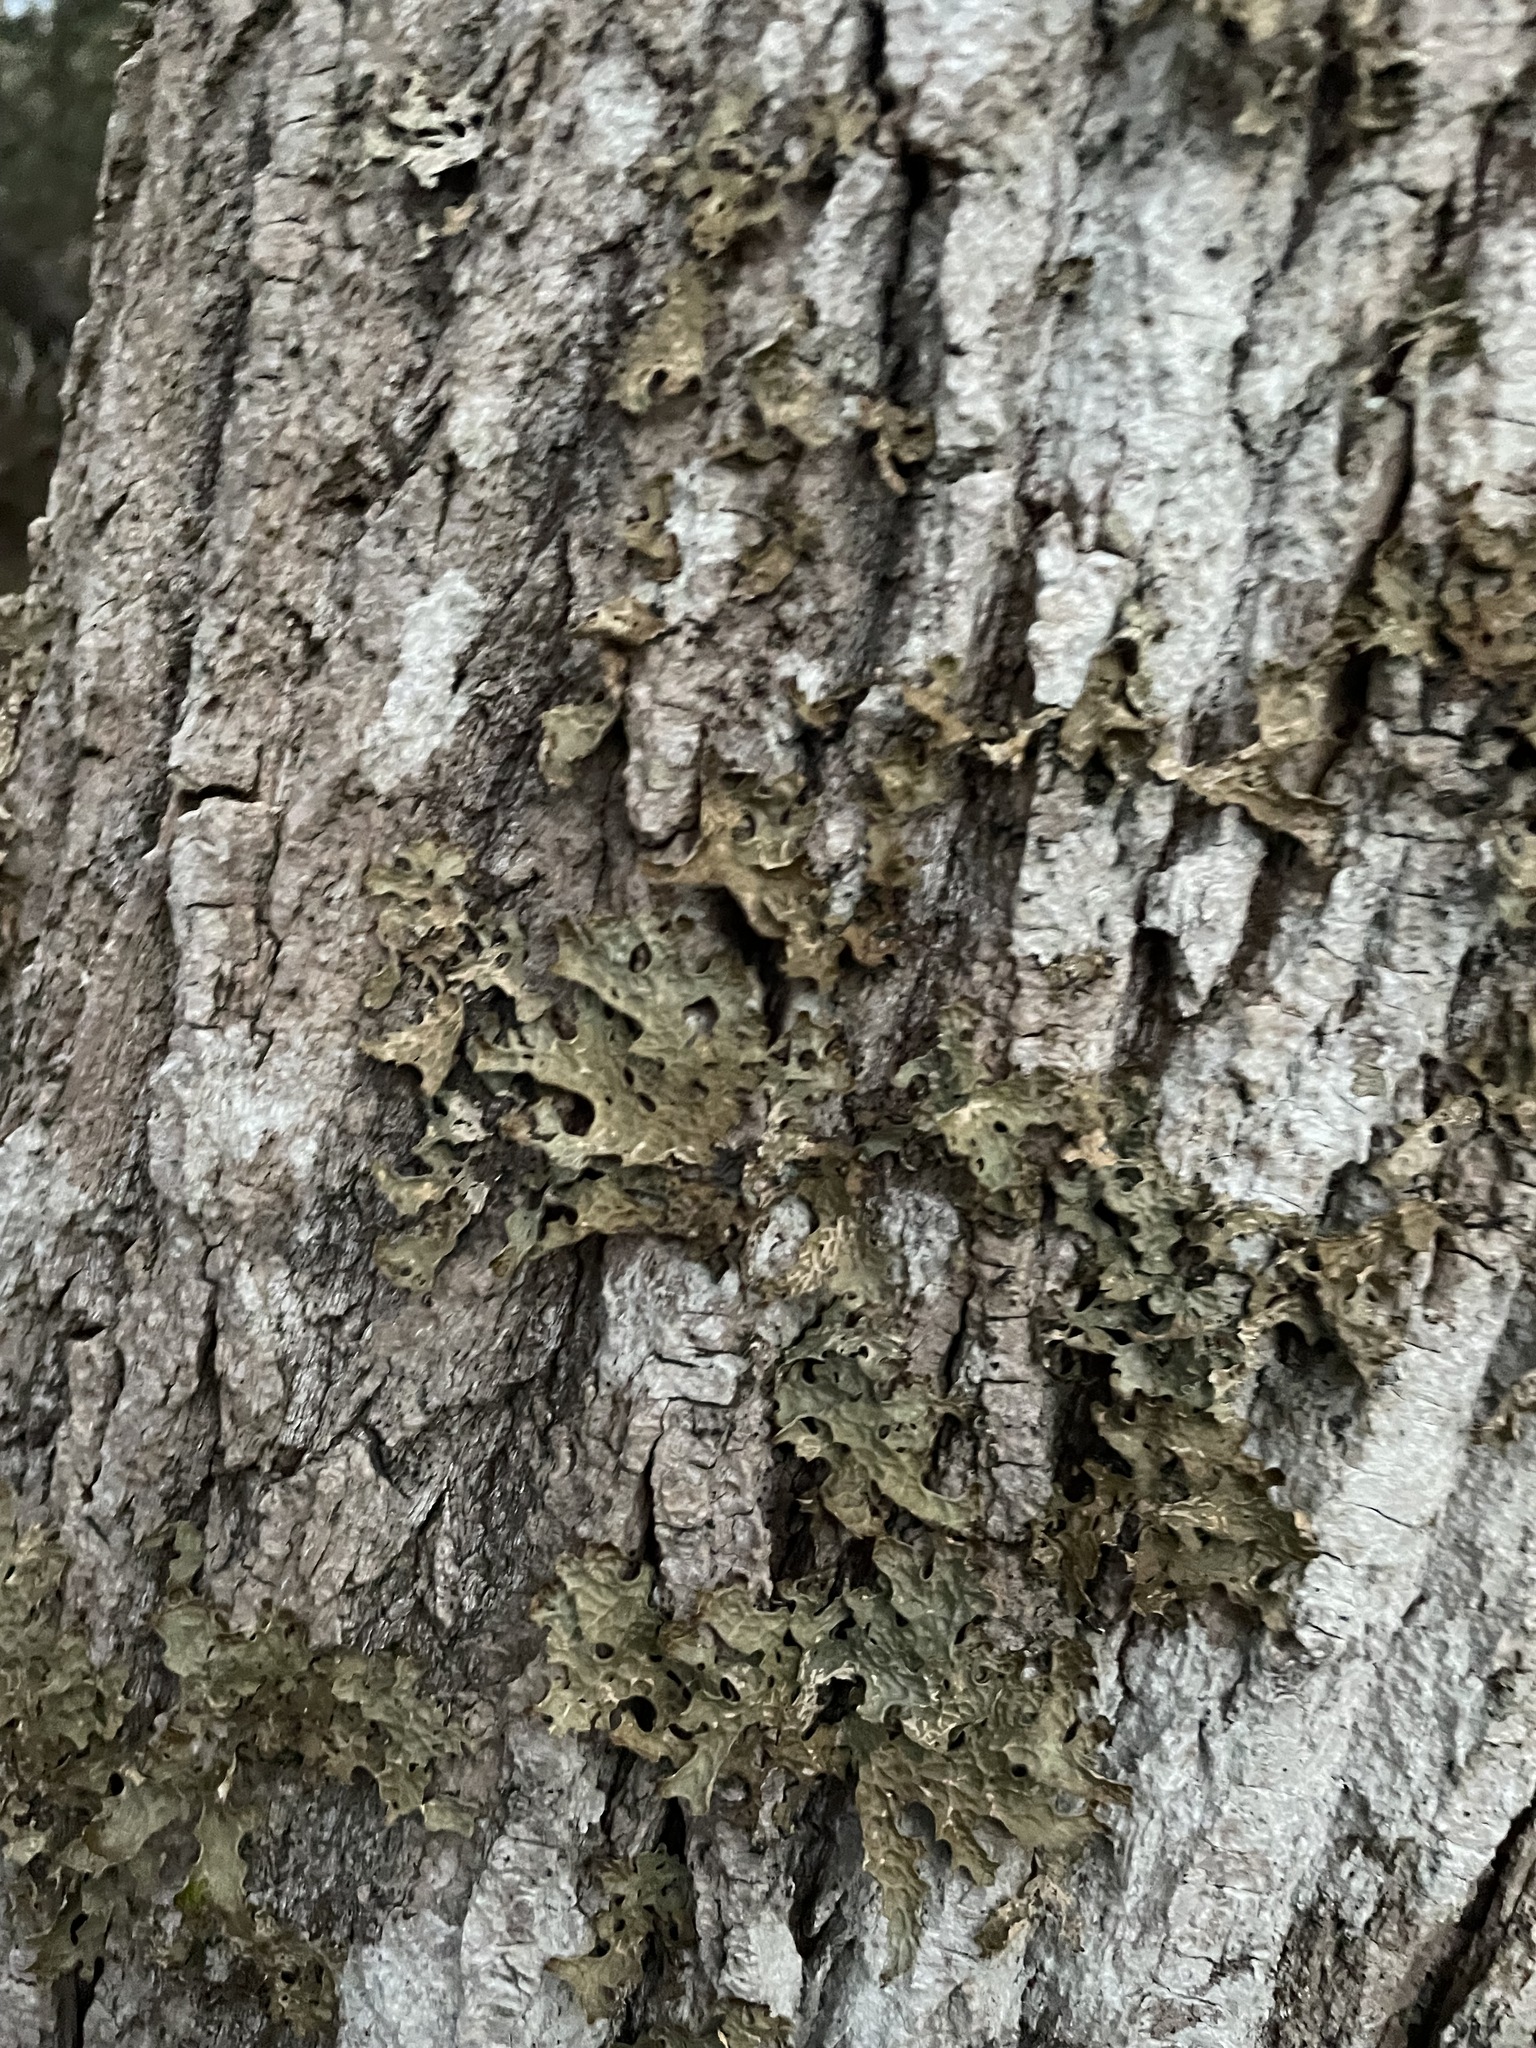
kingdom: Fungi
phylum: Ascomycota
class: Lecanoromycetes
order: Peltigerales
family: Lobariaceae
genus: Lobaria
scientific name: Lobaria pulmonaria
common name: Lungwort
